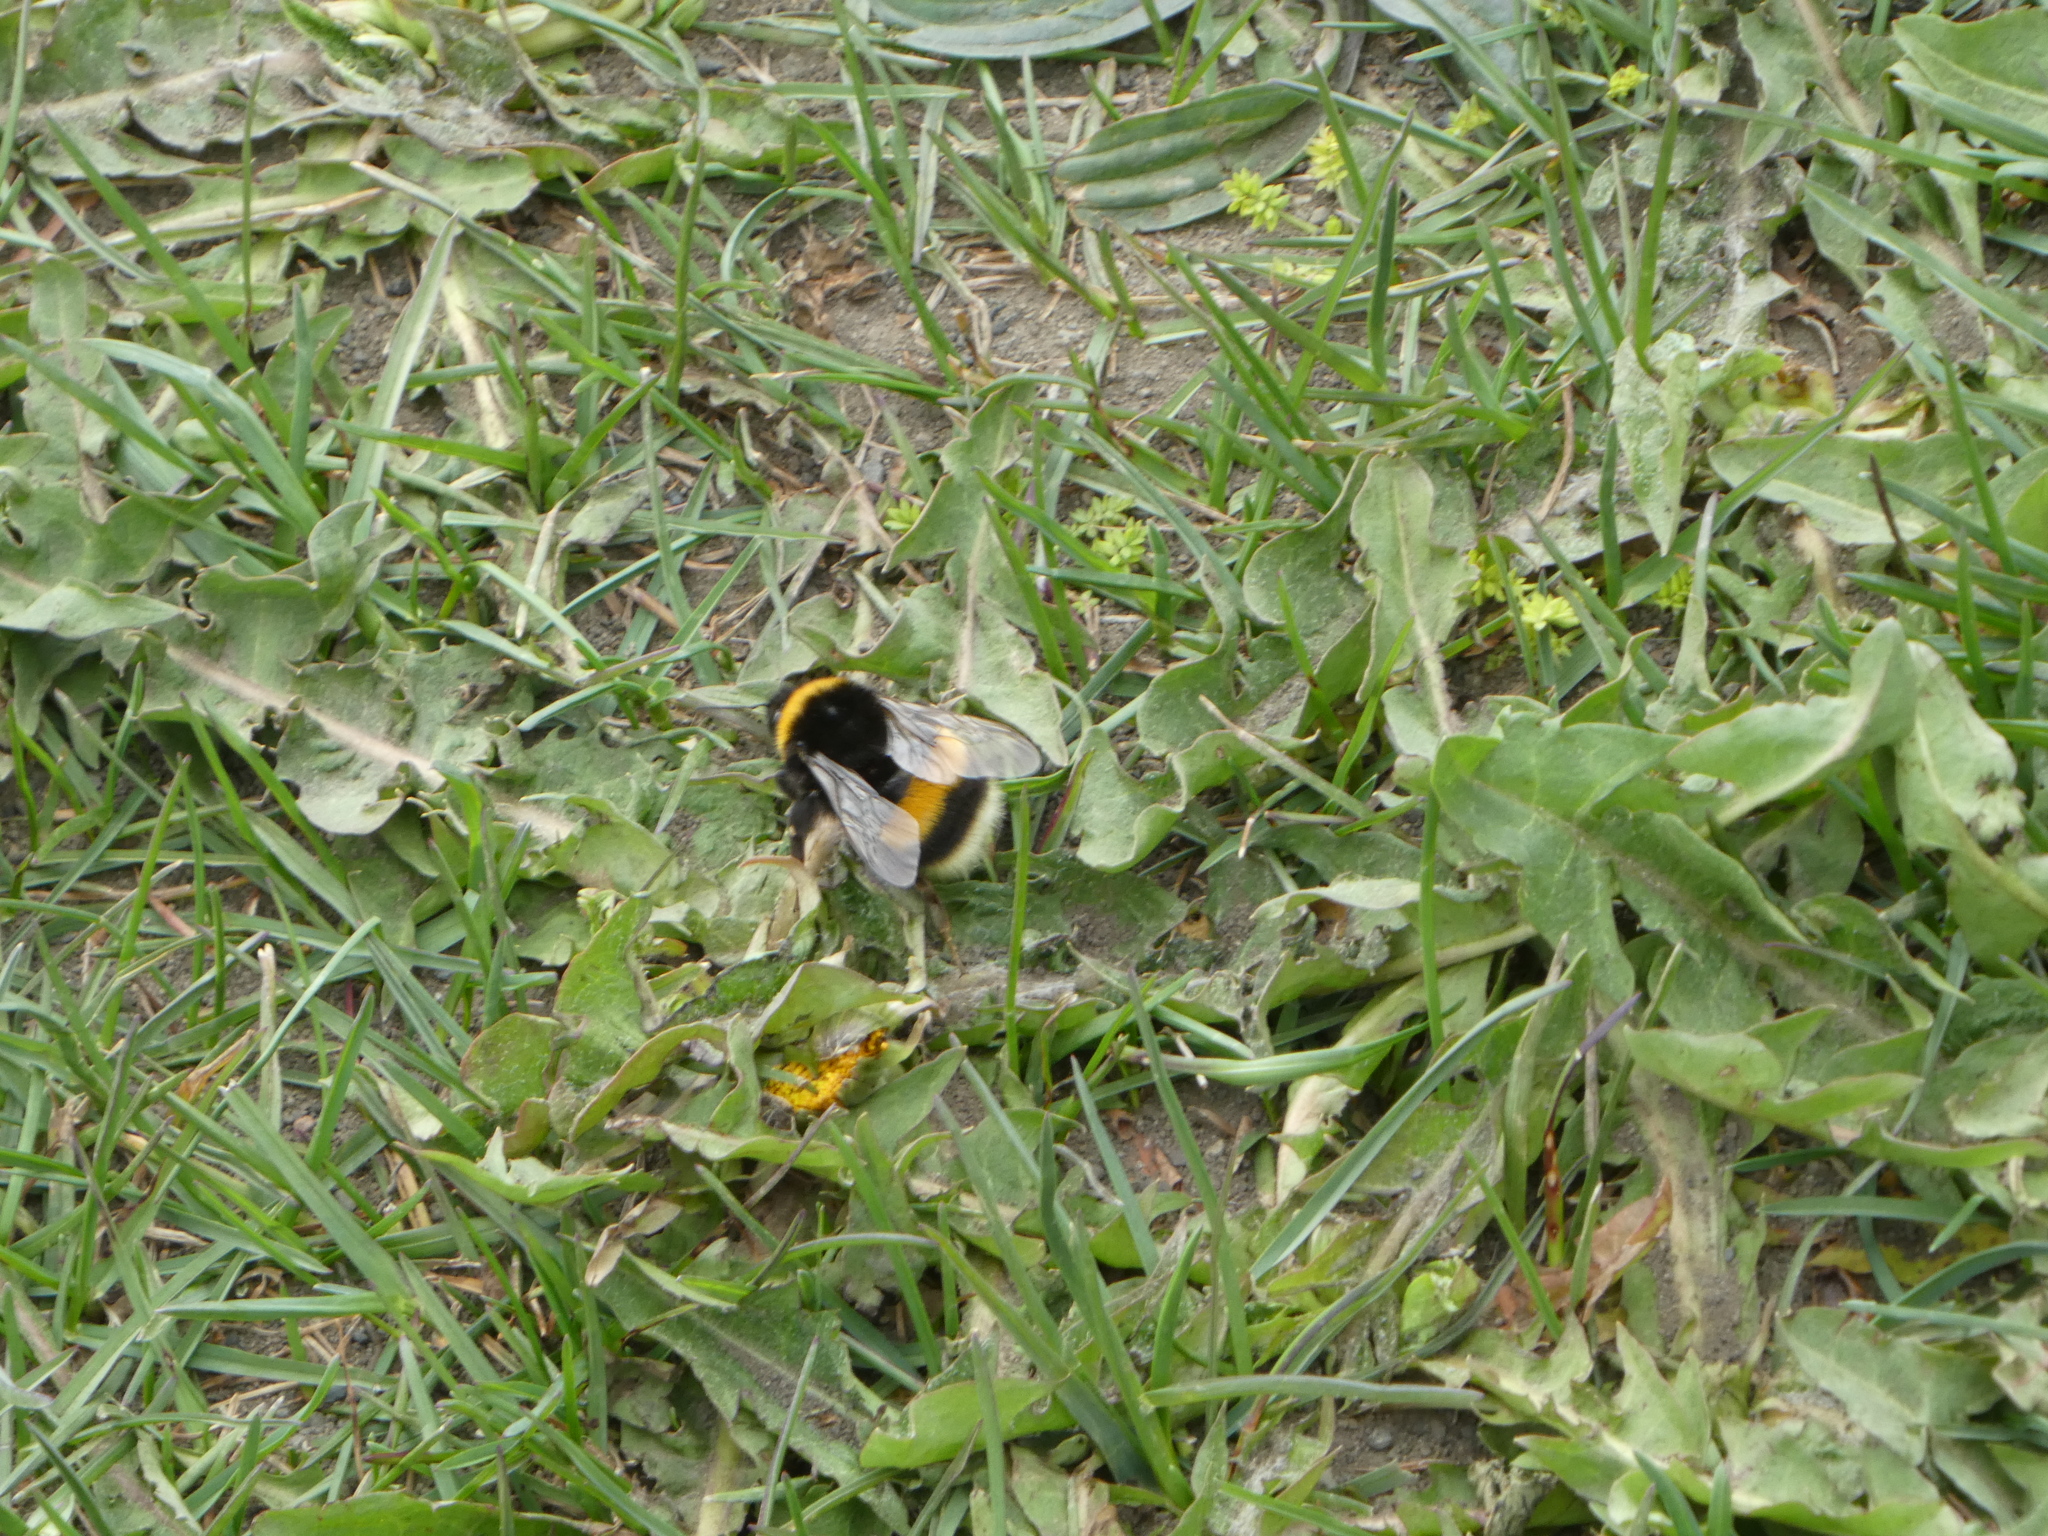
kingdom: Animalia
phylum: Arthropoda
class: Insecta
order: Hymenoptera
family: Apidae
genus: Bombus
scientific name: Bombus terrestris
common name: Buff-tailed bumblebee
